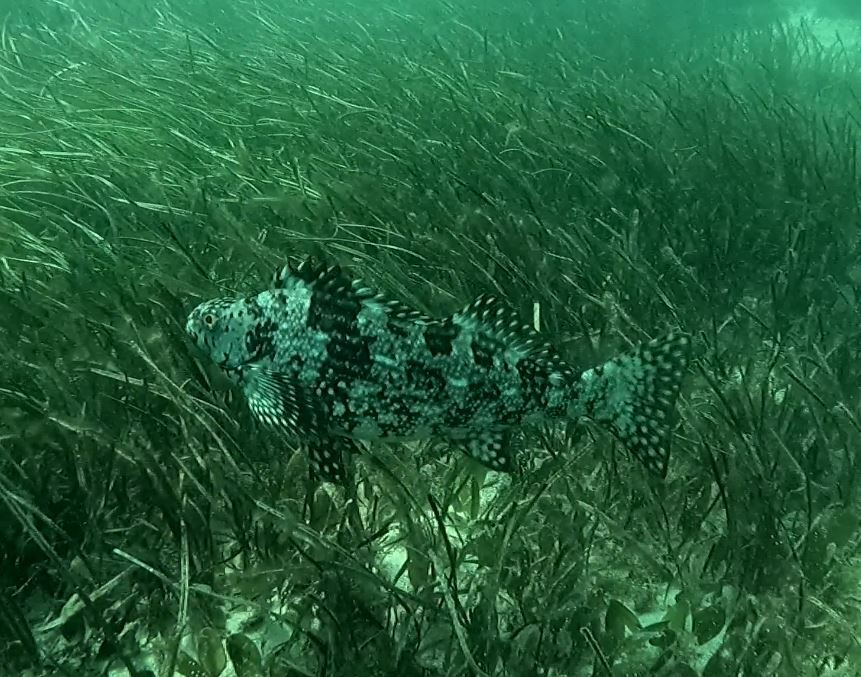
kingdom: Animalia
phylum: Chordata
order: Perciformes
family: Aplodactylidae
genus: Aplodactylus
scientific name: Aplodactylus lophodon
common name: Cockatoo fish
